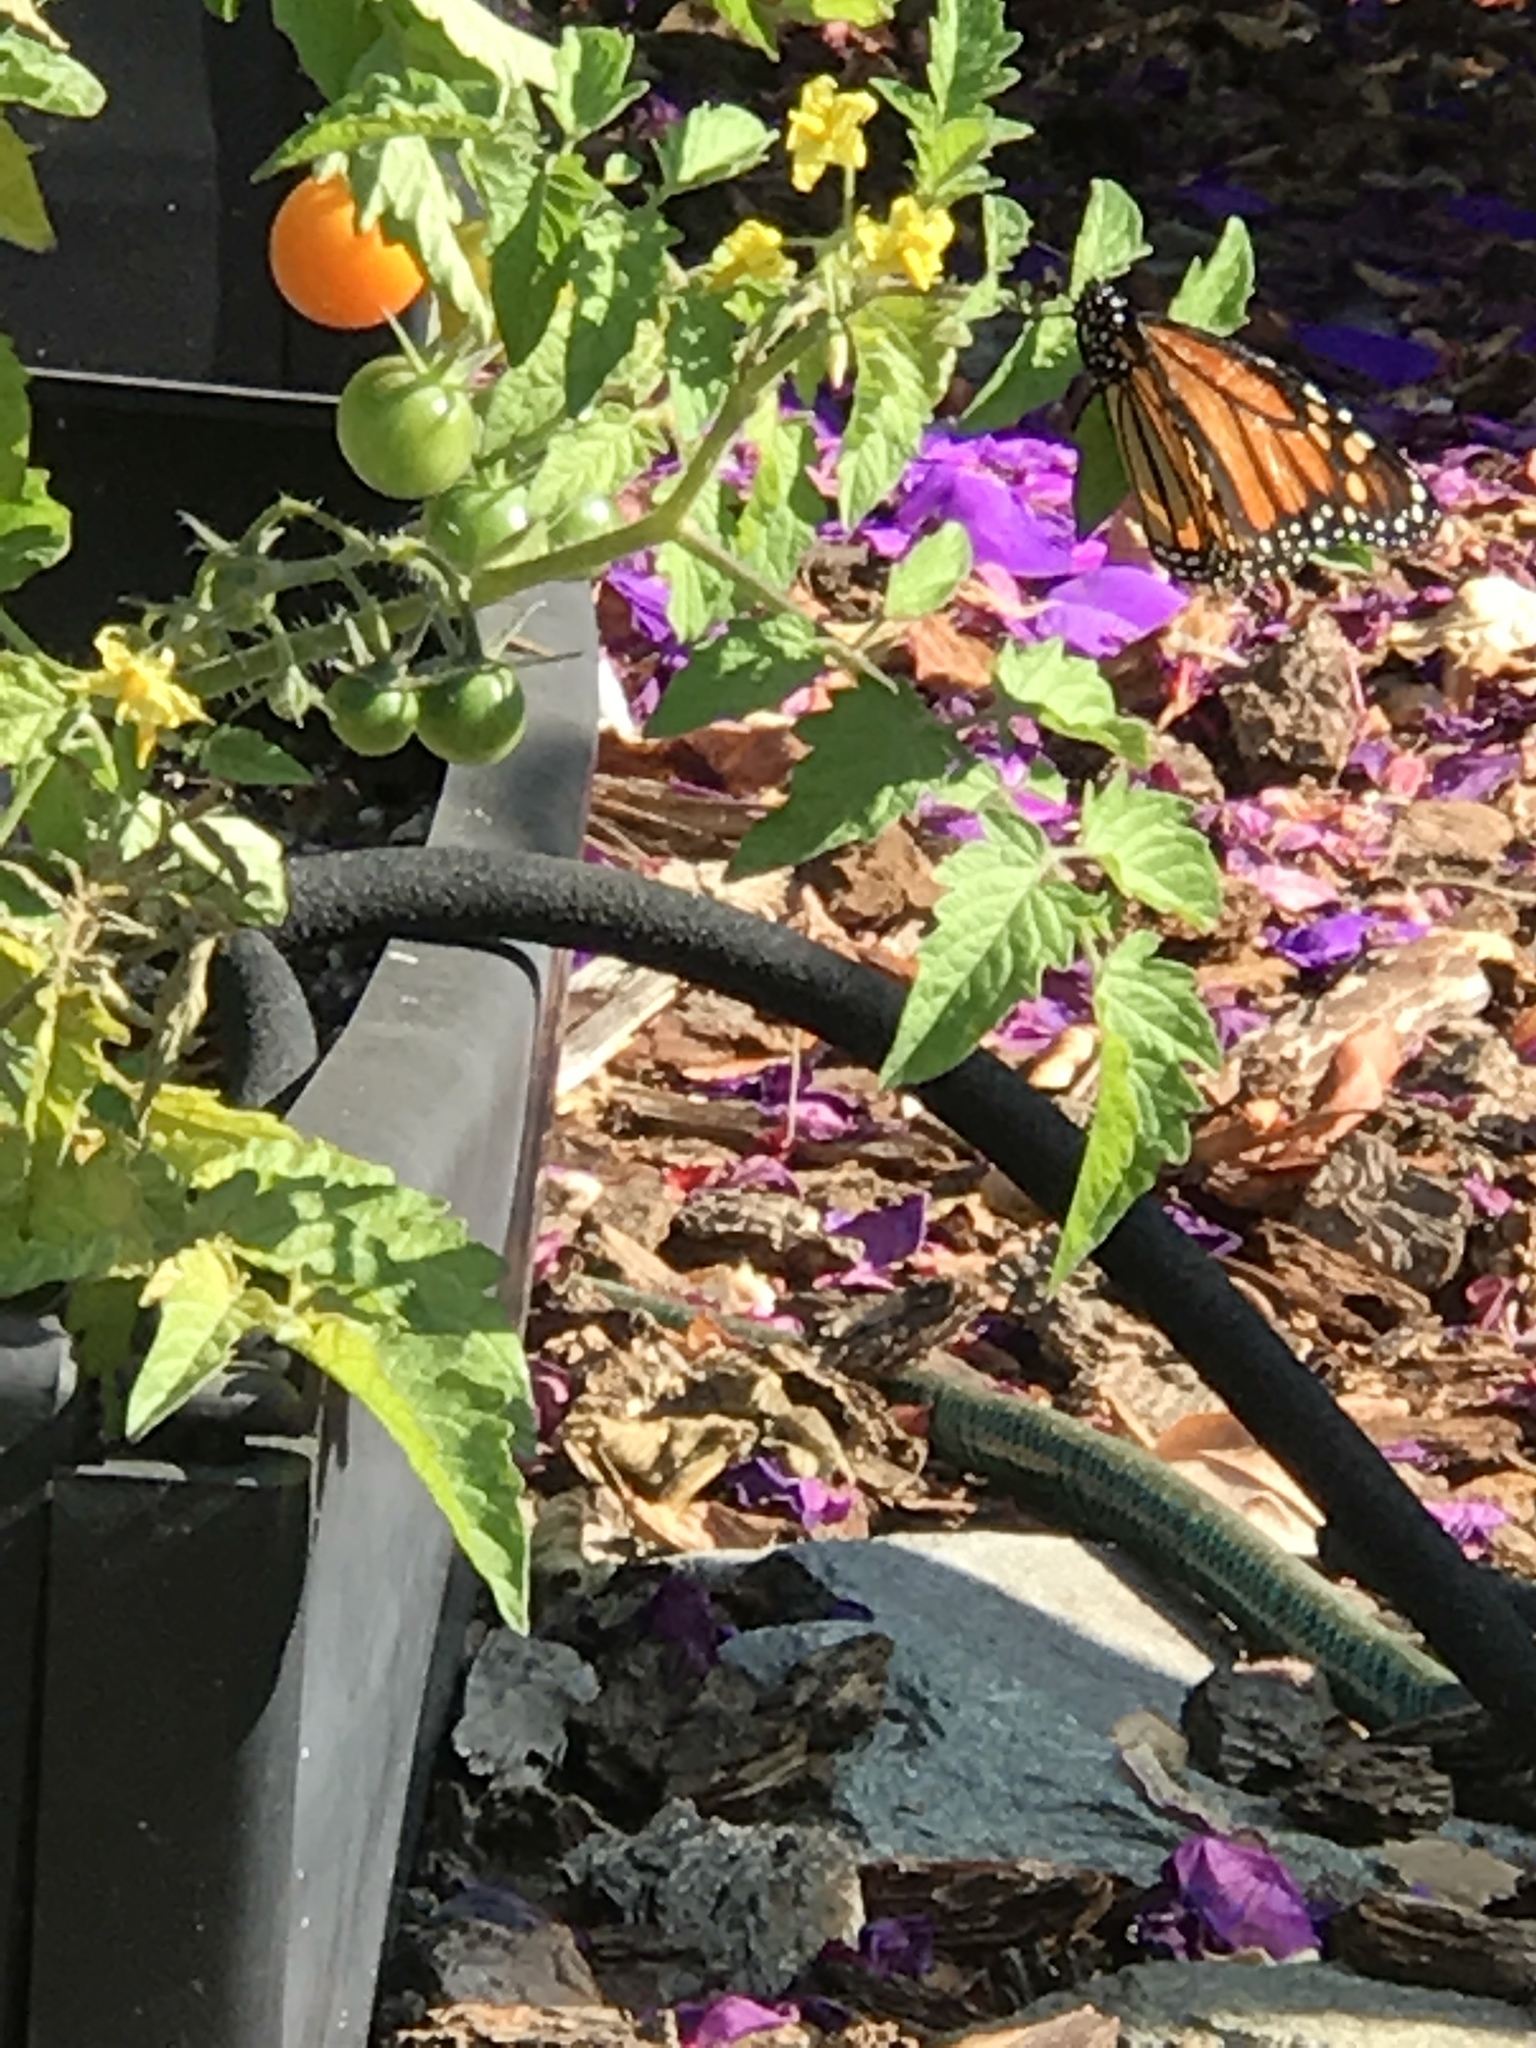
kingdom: Animalia
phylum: Arthropoda
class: Insecta
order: Lepidoptera
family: Nymphalidae
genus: Danaus
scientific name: Danaus plexippus
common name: Monarch
